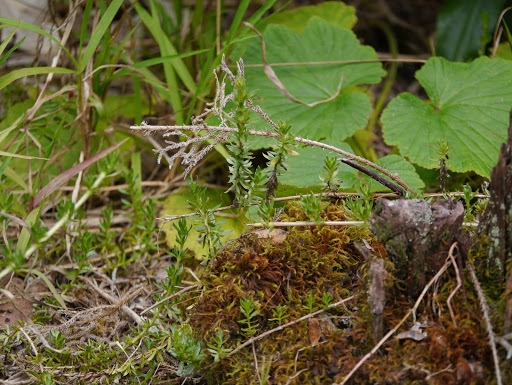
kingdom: Plantae
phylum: Tracheophyta
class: Magnoliopsida
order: Gentianales
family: Rubiaceae
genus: Coprosma
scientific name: Coprosma ernodeoides
